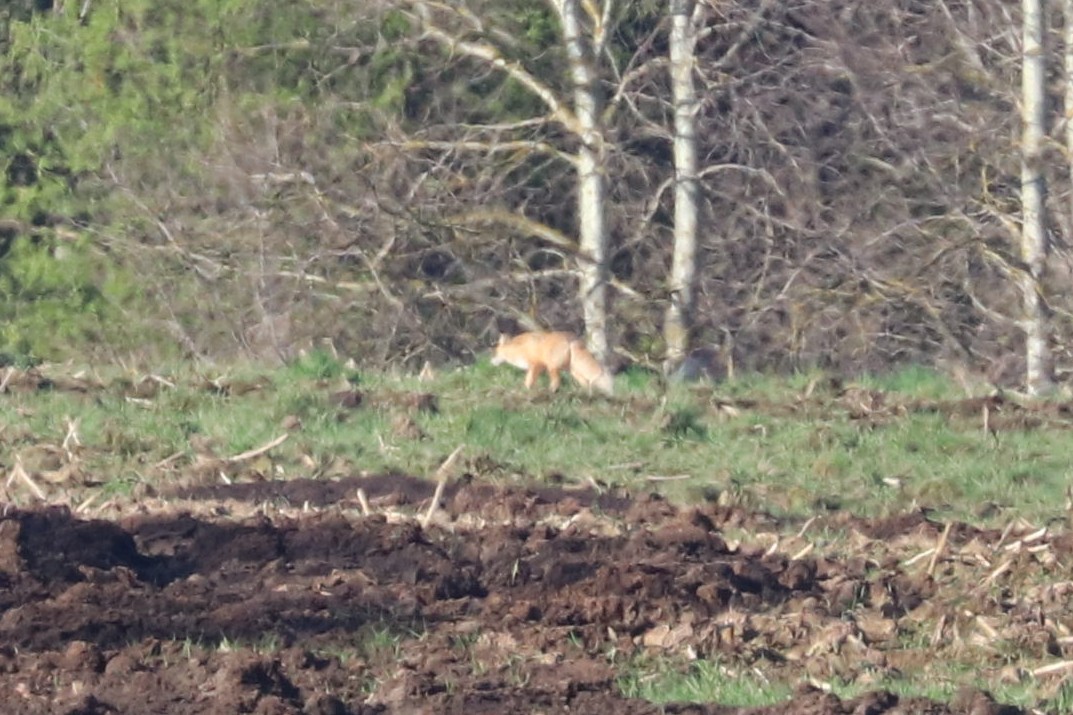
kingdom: Animalia
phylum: Chordata
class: Mammalia
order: Carnivora
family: Canidae
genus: Vulpes
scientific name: Vulpes vulpes
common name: Red fox
